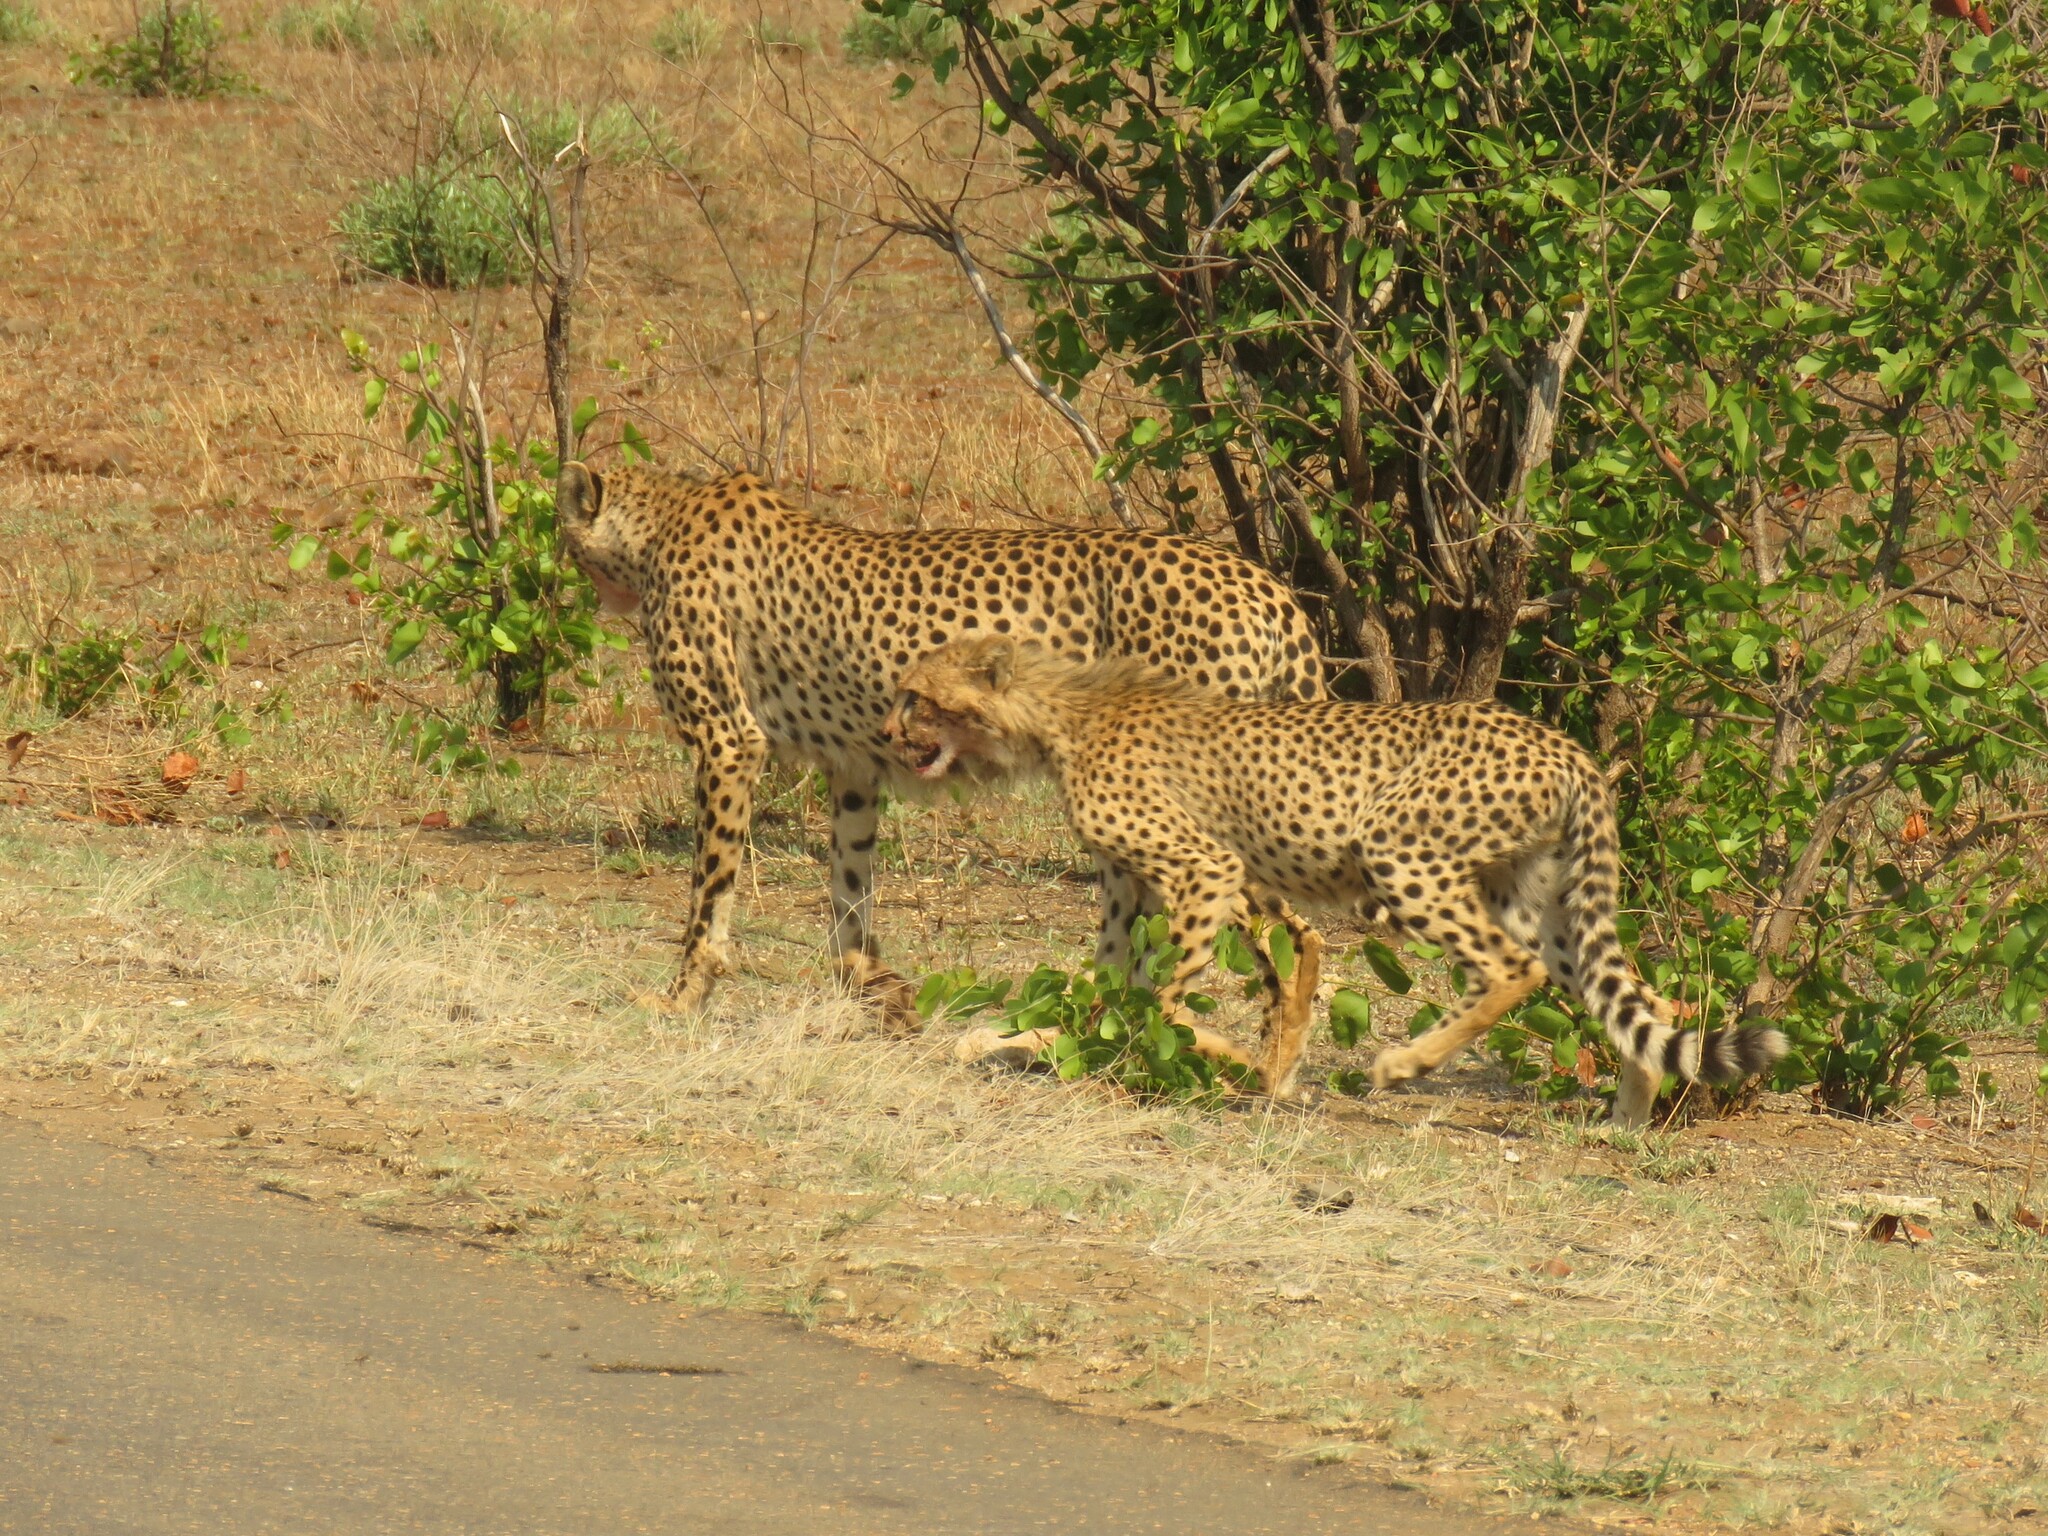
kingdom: Animalia
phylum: Chordata
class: Mammalia
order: Carnivora
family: Felidae
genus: Acinonyx
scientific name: Acinonyx jubatus
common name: Cheetah
